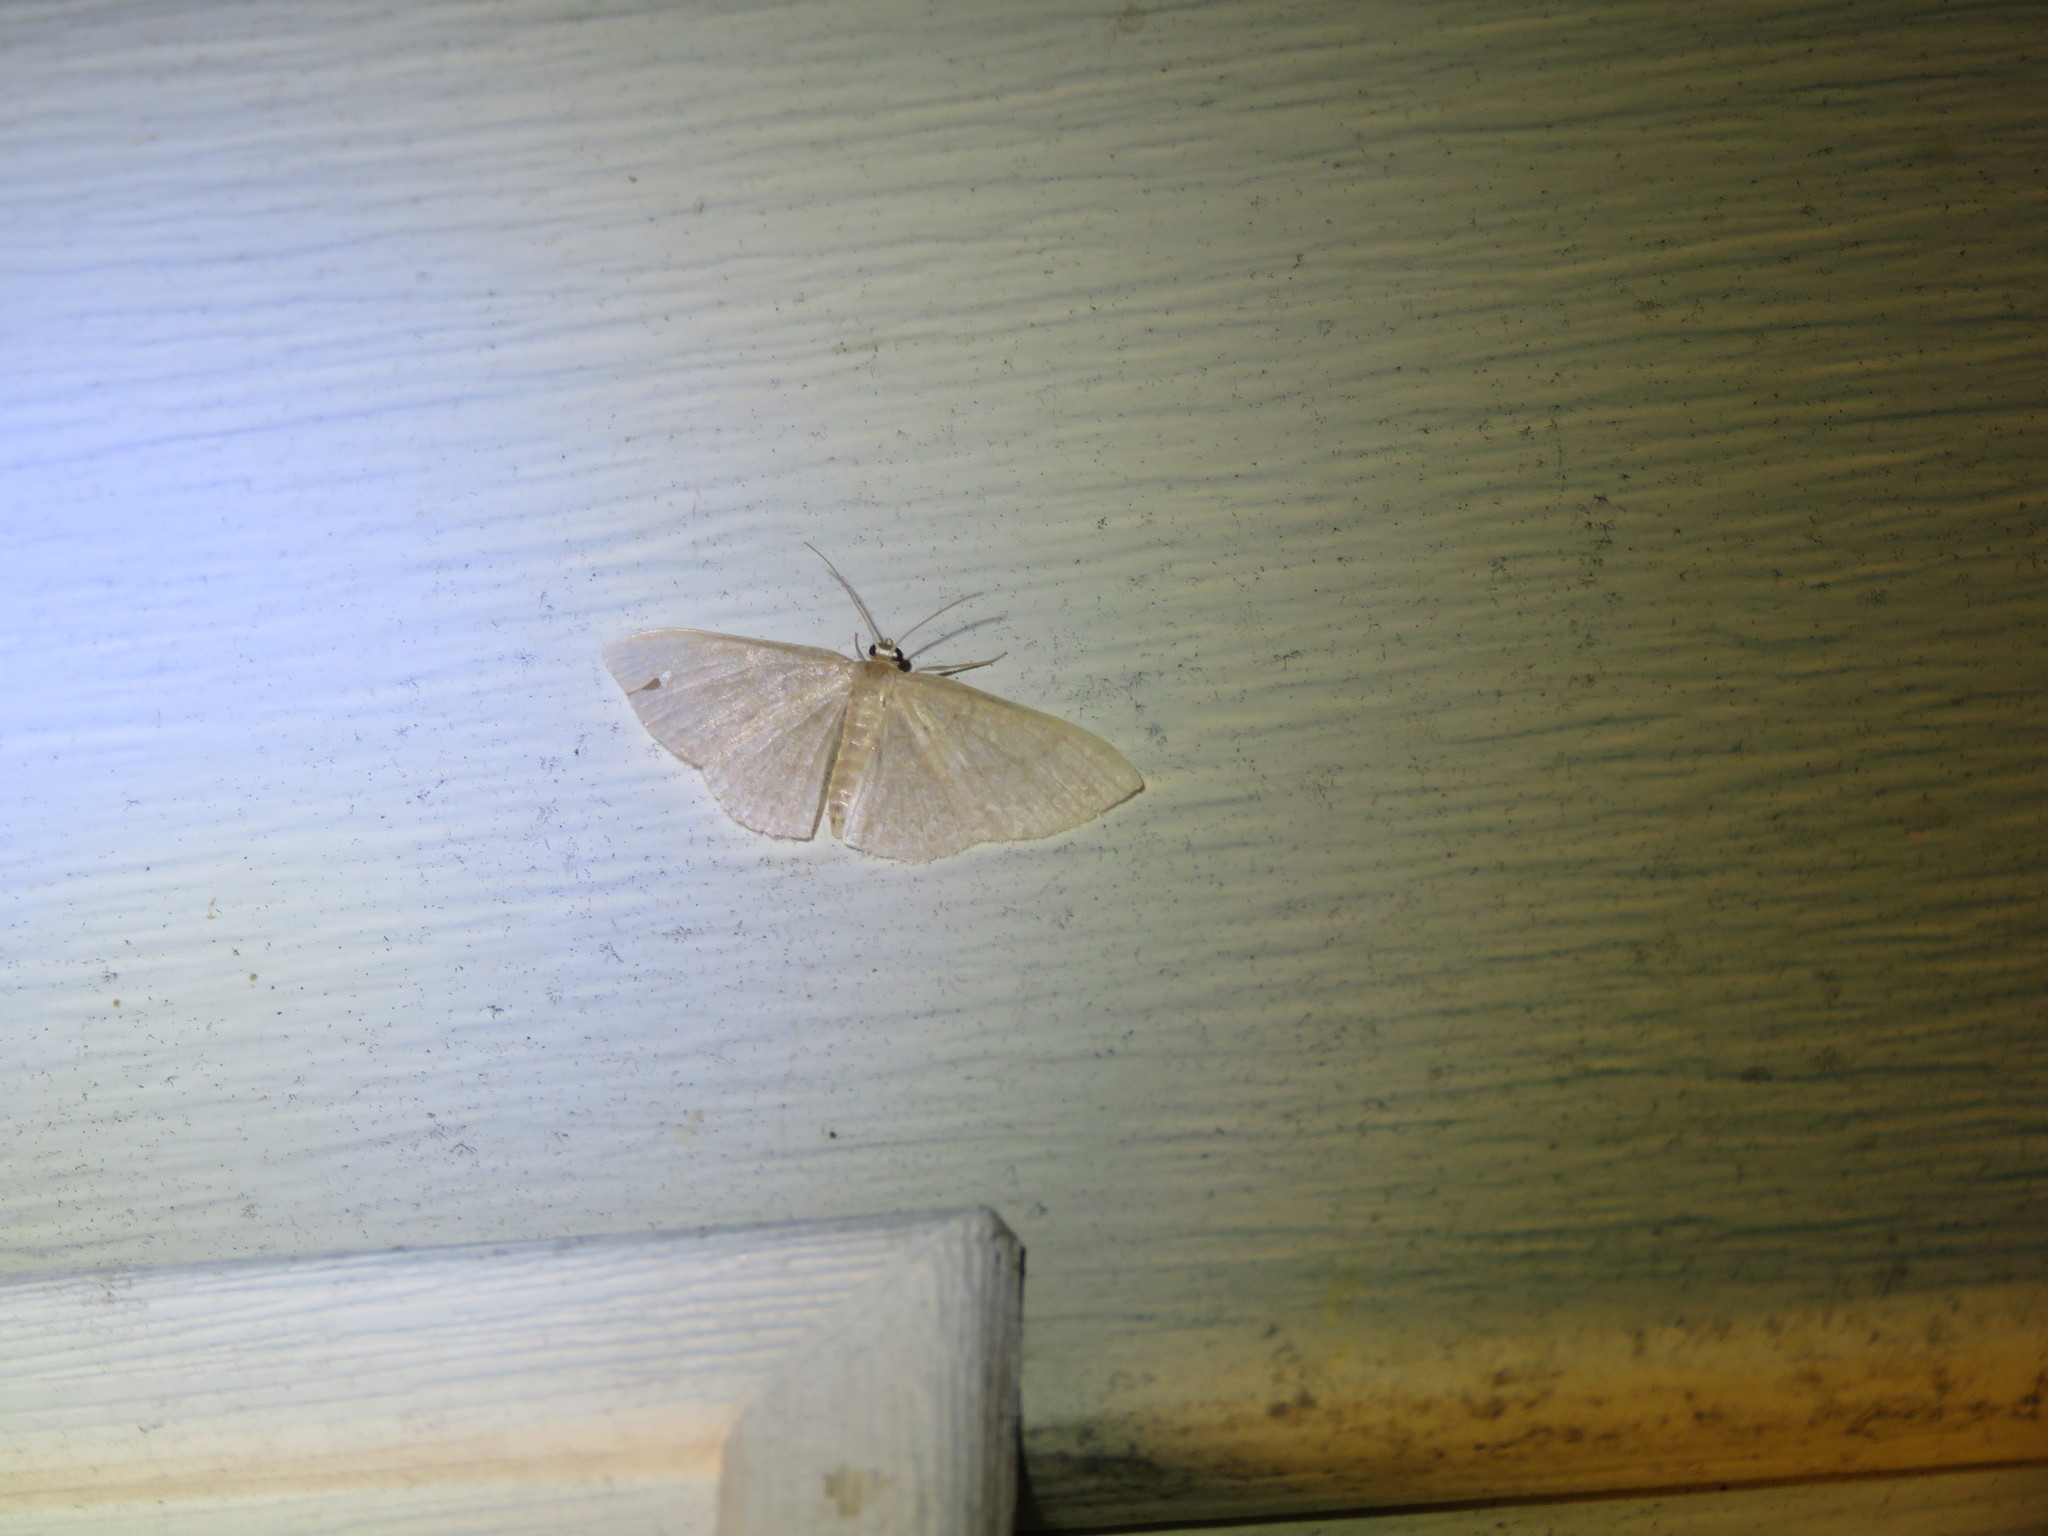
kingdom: Animalia
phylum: Arthropoda
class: Insecta
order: Lepidoptera
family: Geometridae
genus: Pleuroprucha
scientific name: Pleuroprucha insulsaria
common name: Common tan wave
